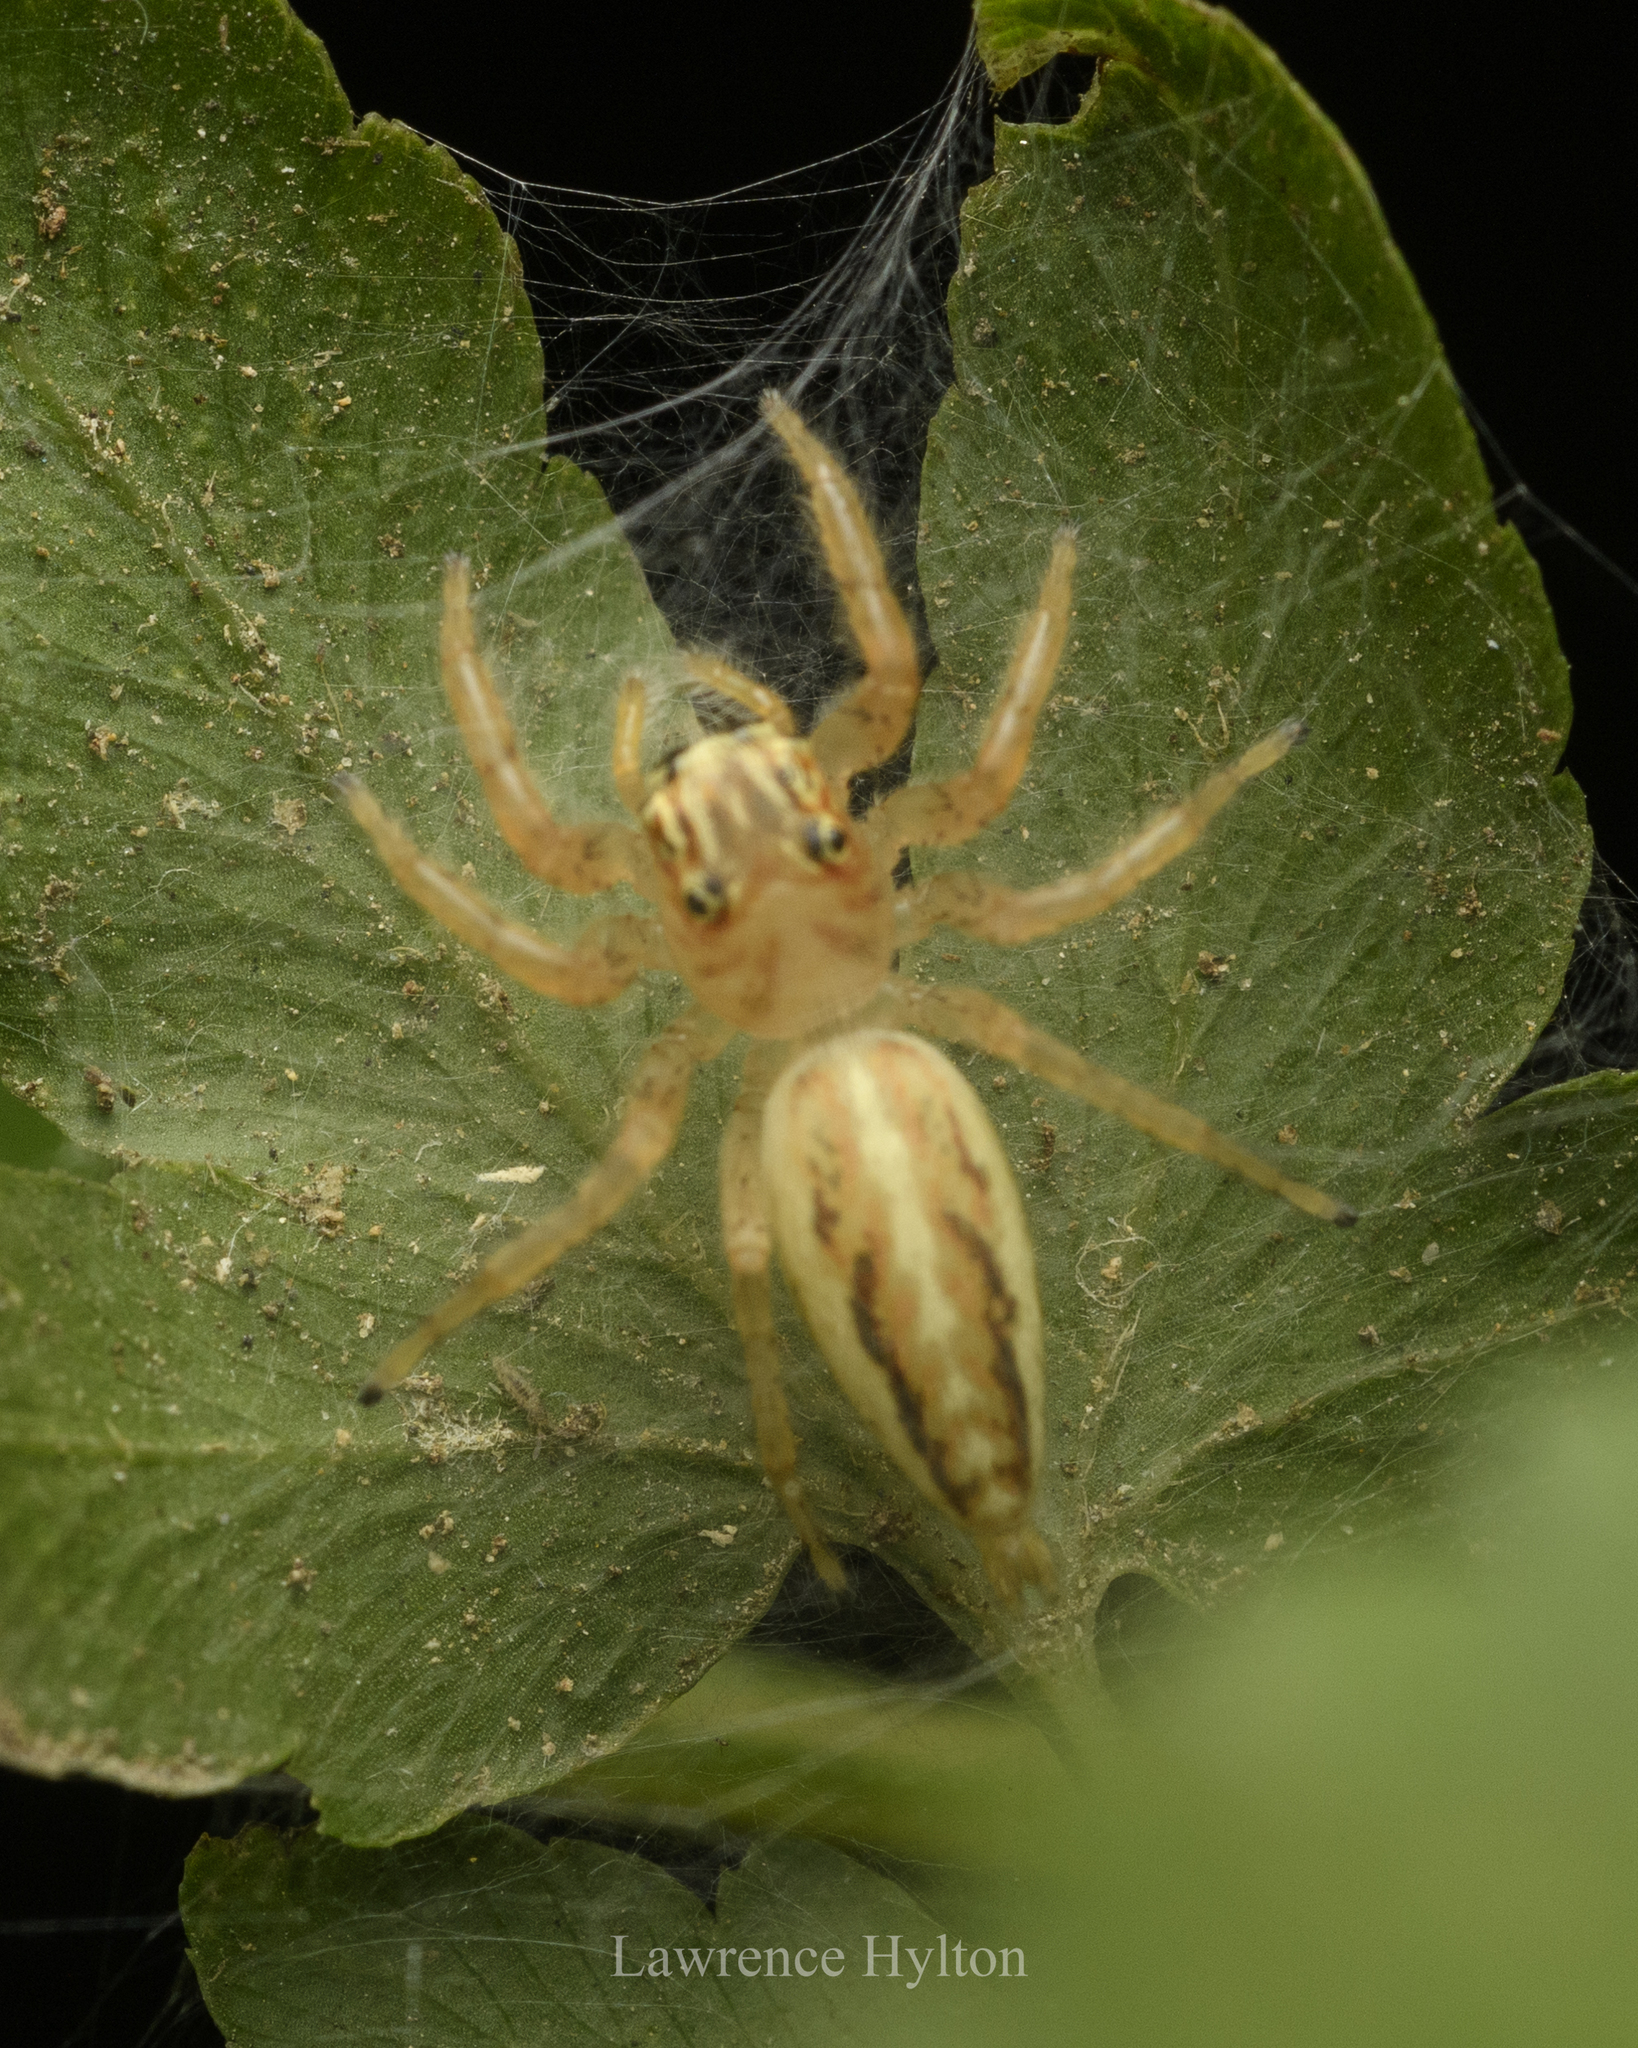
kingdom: Animalia
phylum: Arthropoda
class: Arachnida
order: Araneae
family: Salticidae
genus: Telamonia
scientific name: Telamonia caprina
